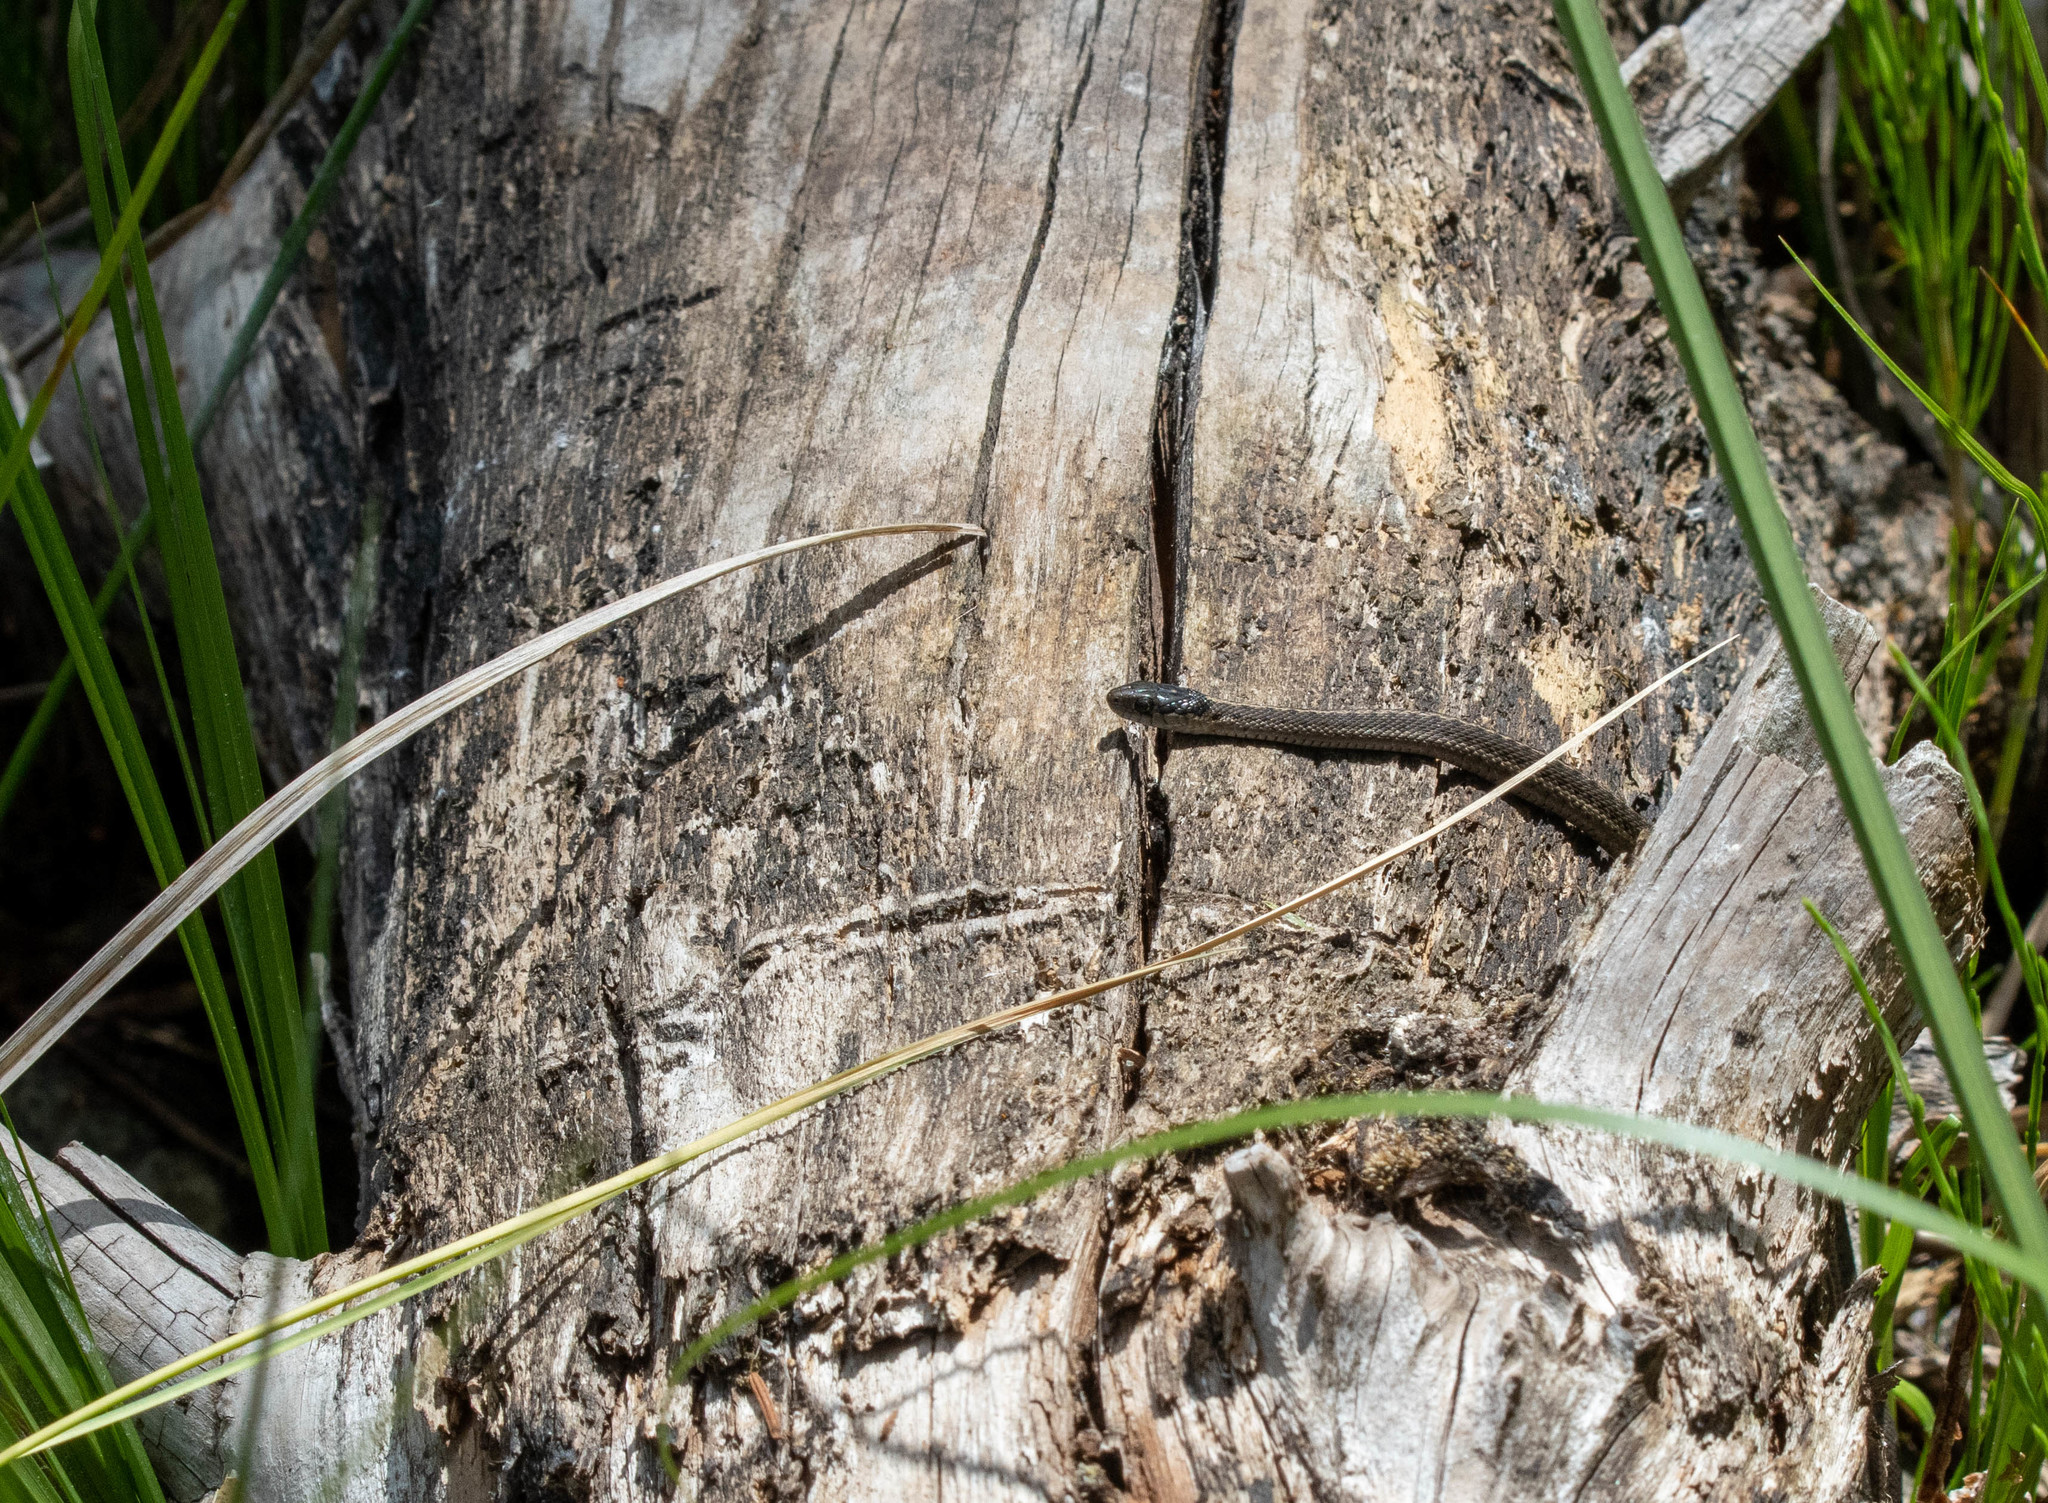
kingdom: Animalia
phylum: Chordata
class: Squamata
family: Colubridae
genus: Thamnophis
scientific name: Thamnophis elegans
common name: Western terrestrial garter snake
